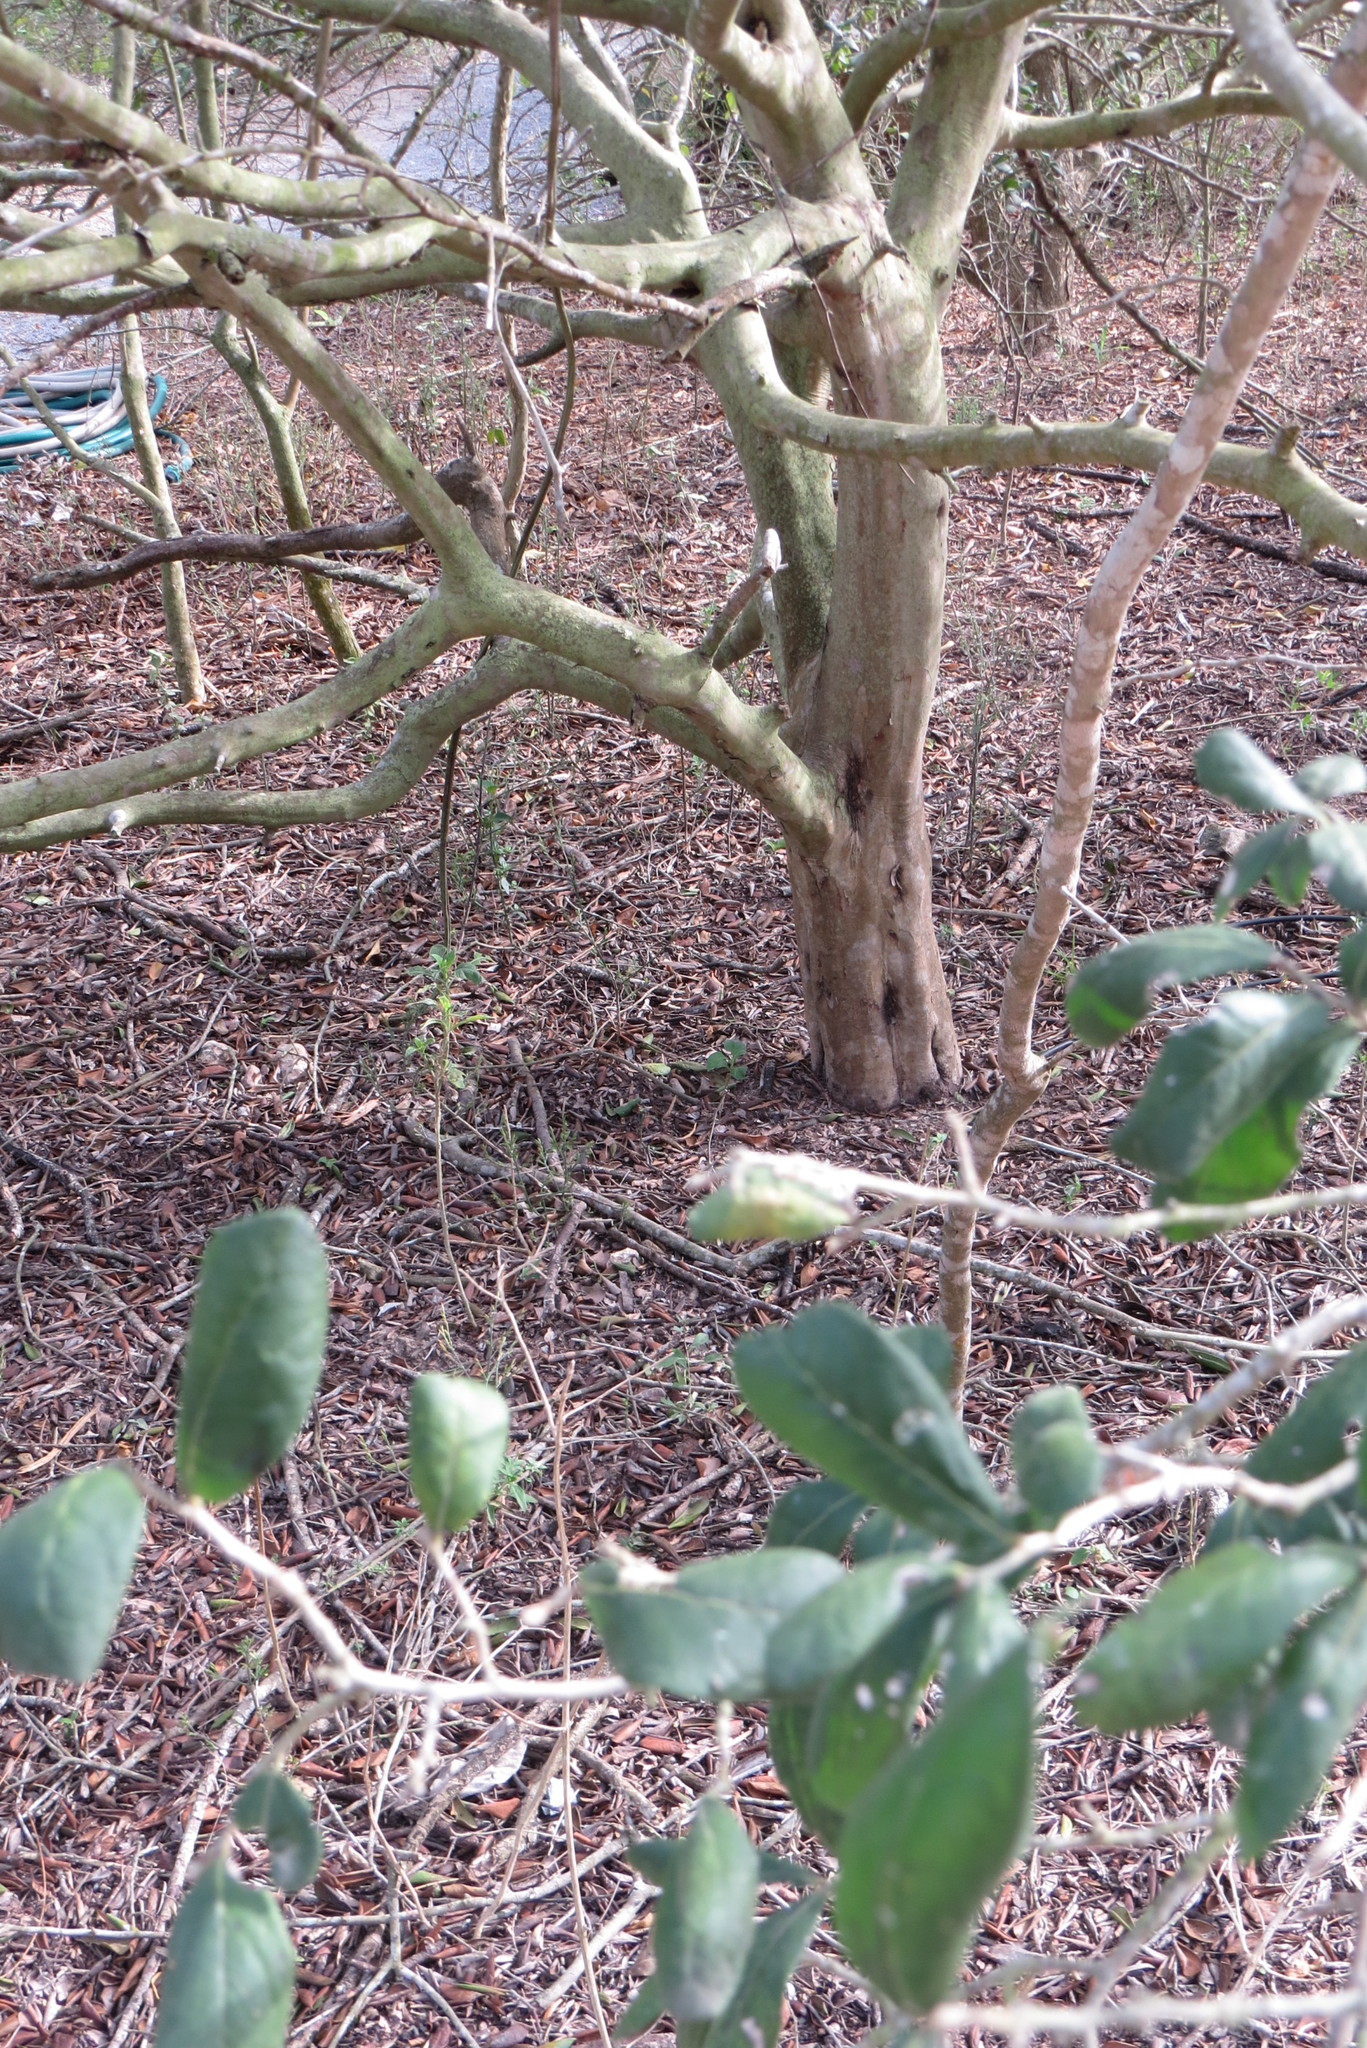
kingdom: Plantae
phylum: Tracheophyta
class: Magnoliopsida
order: Ericales
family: Ebenaceae
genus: Diospyros
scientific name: Diospyros texana
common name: Texas persimmon
